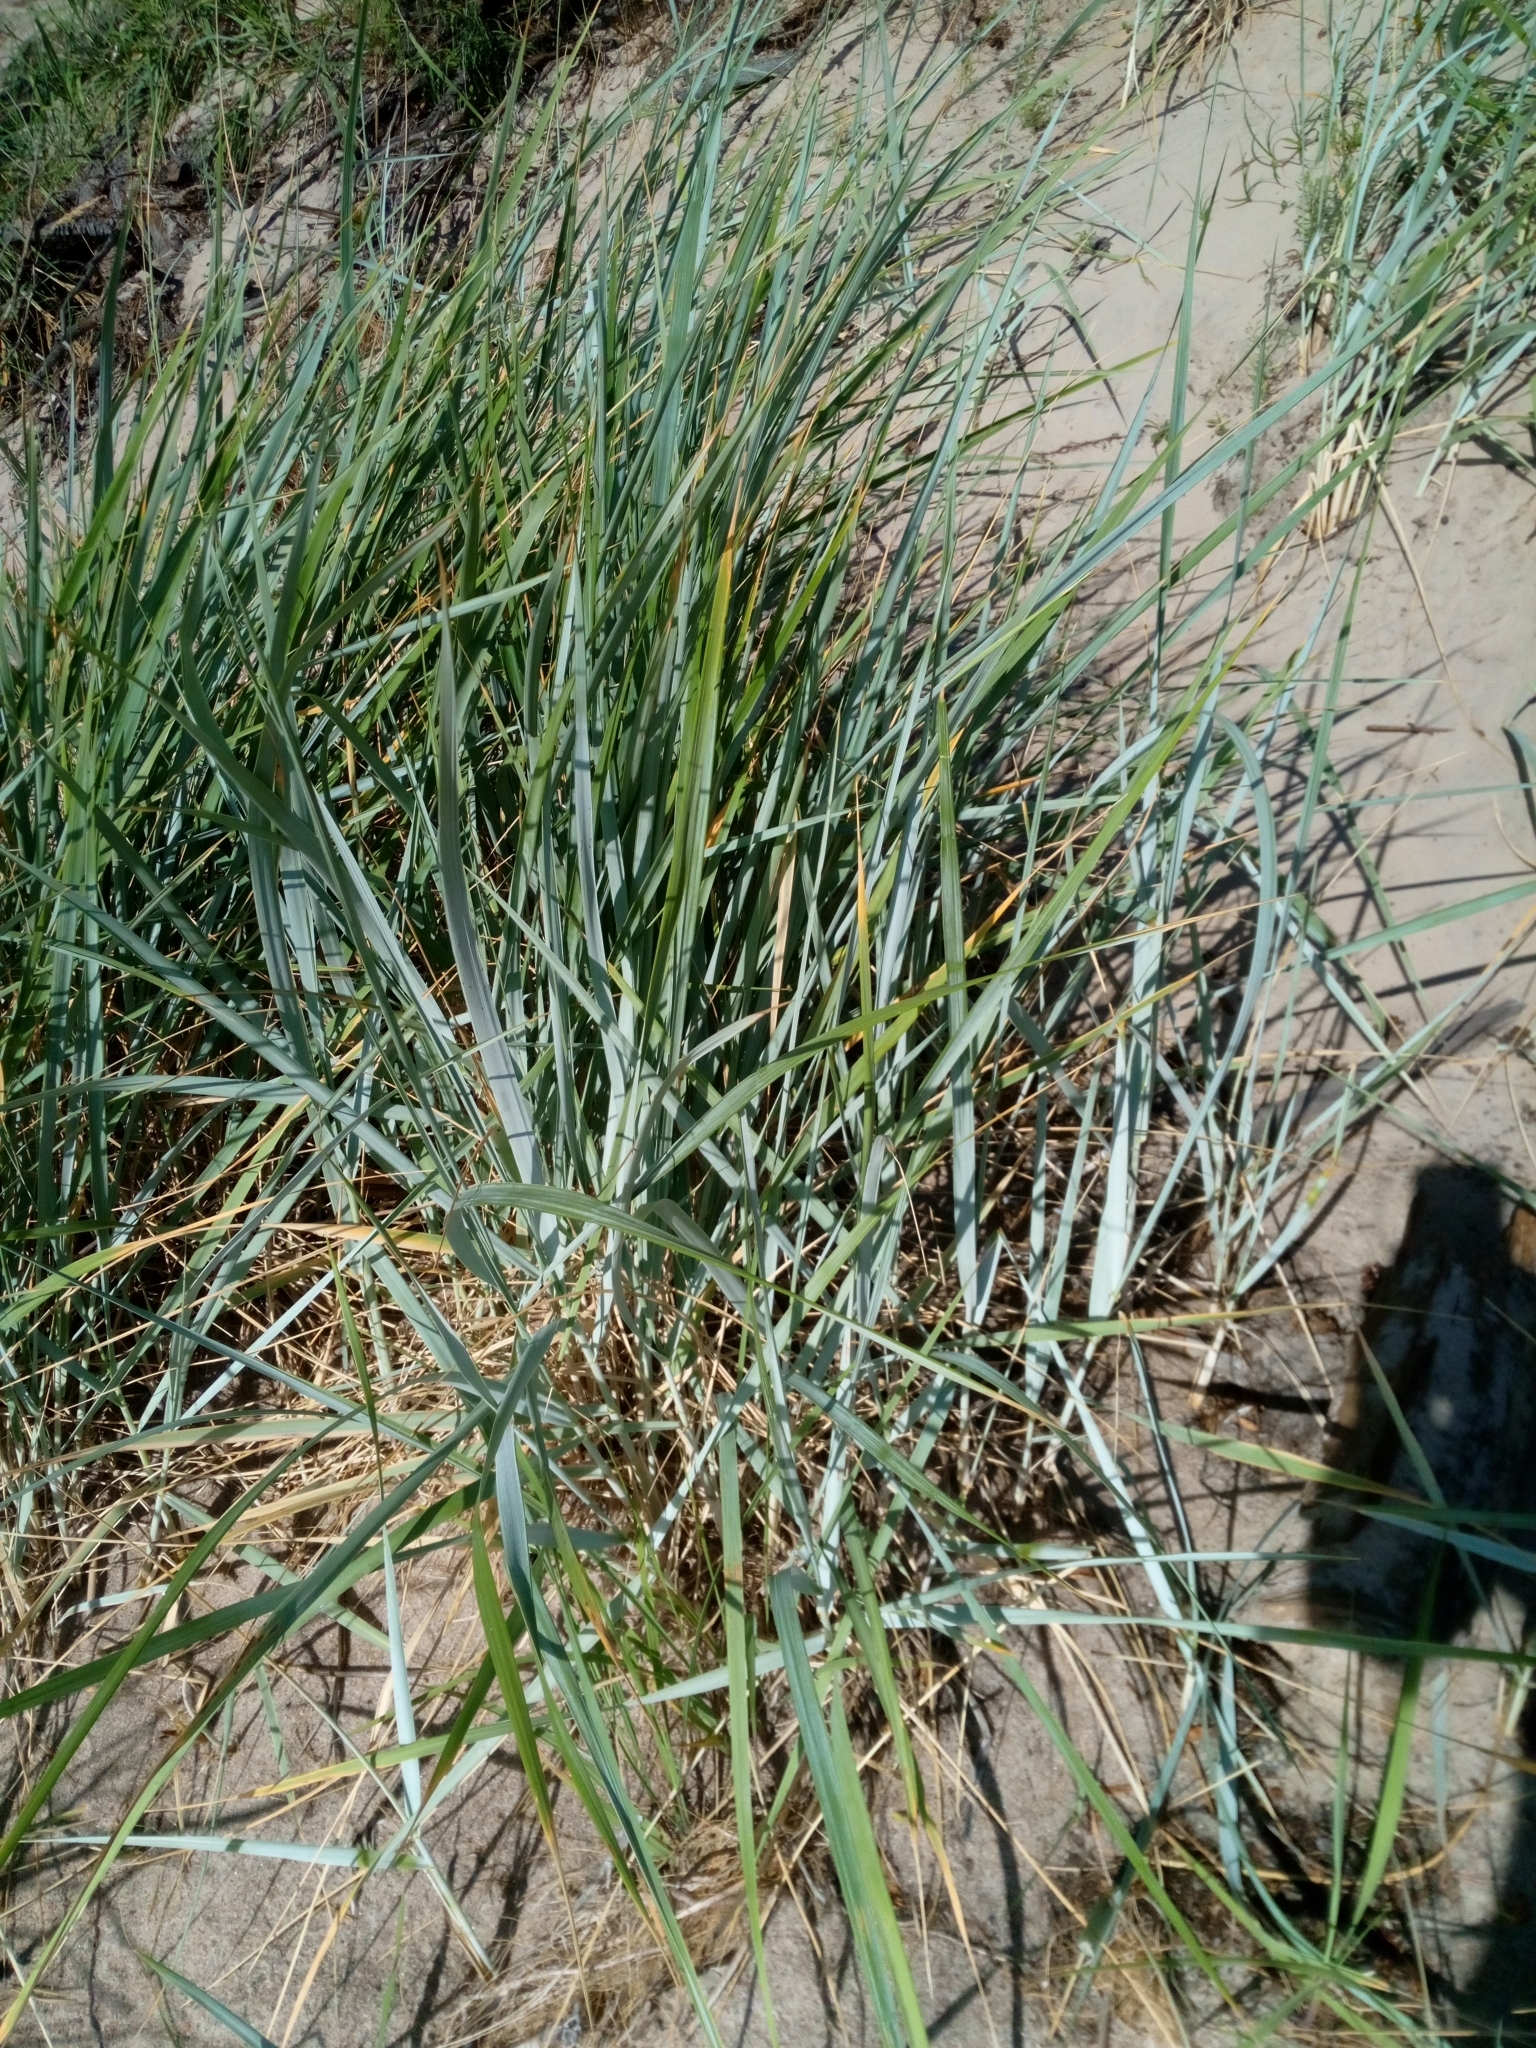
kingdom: Plantae
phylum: Tracheophyta
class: Liliopsida
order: Poales
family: Poaceae
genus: Leymus
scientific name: Leymus arenarius
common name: Lyme-grass
